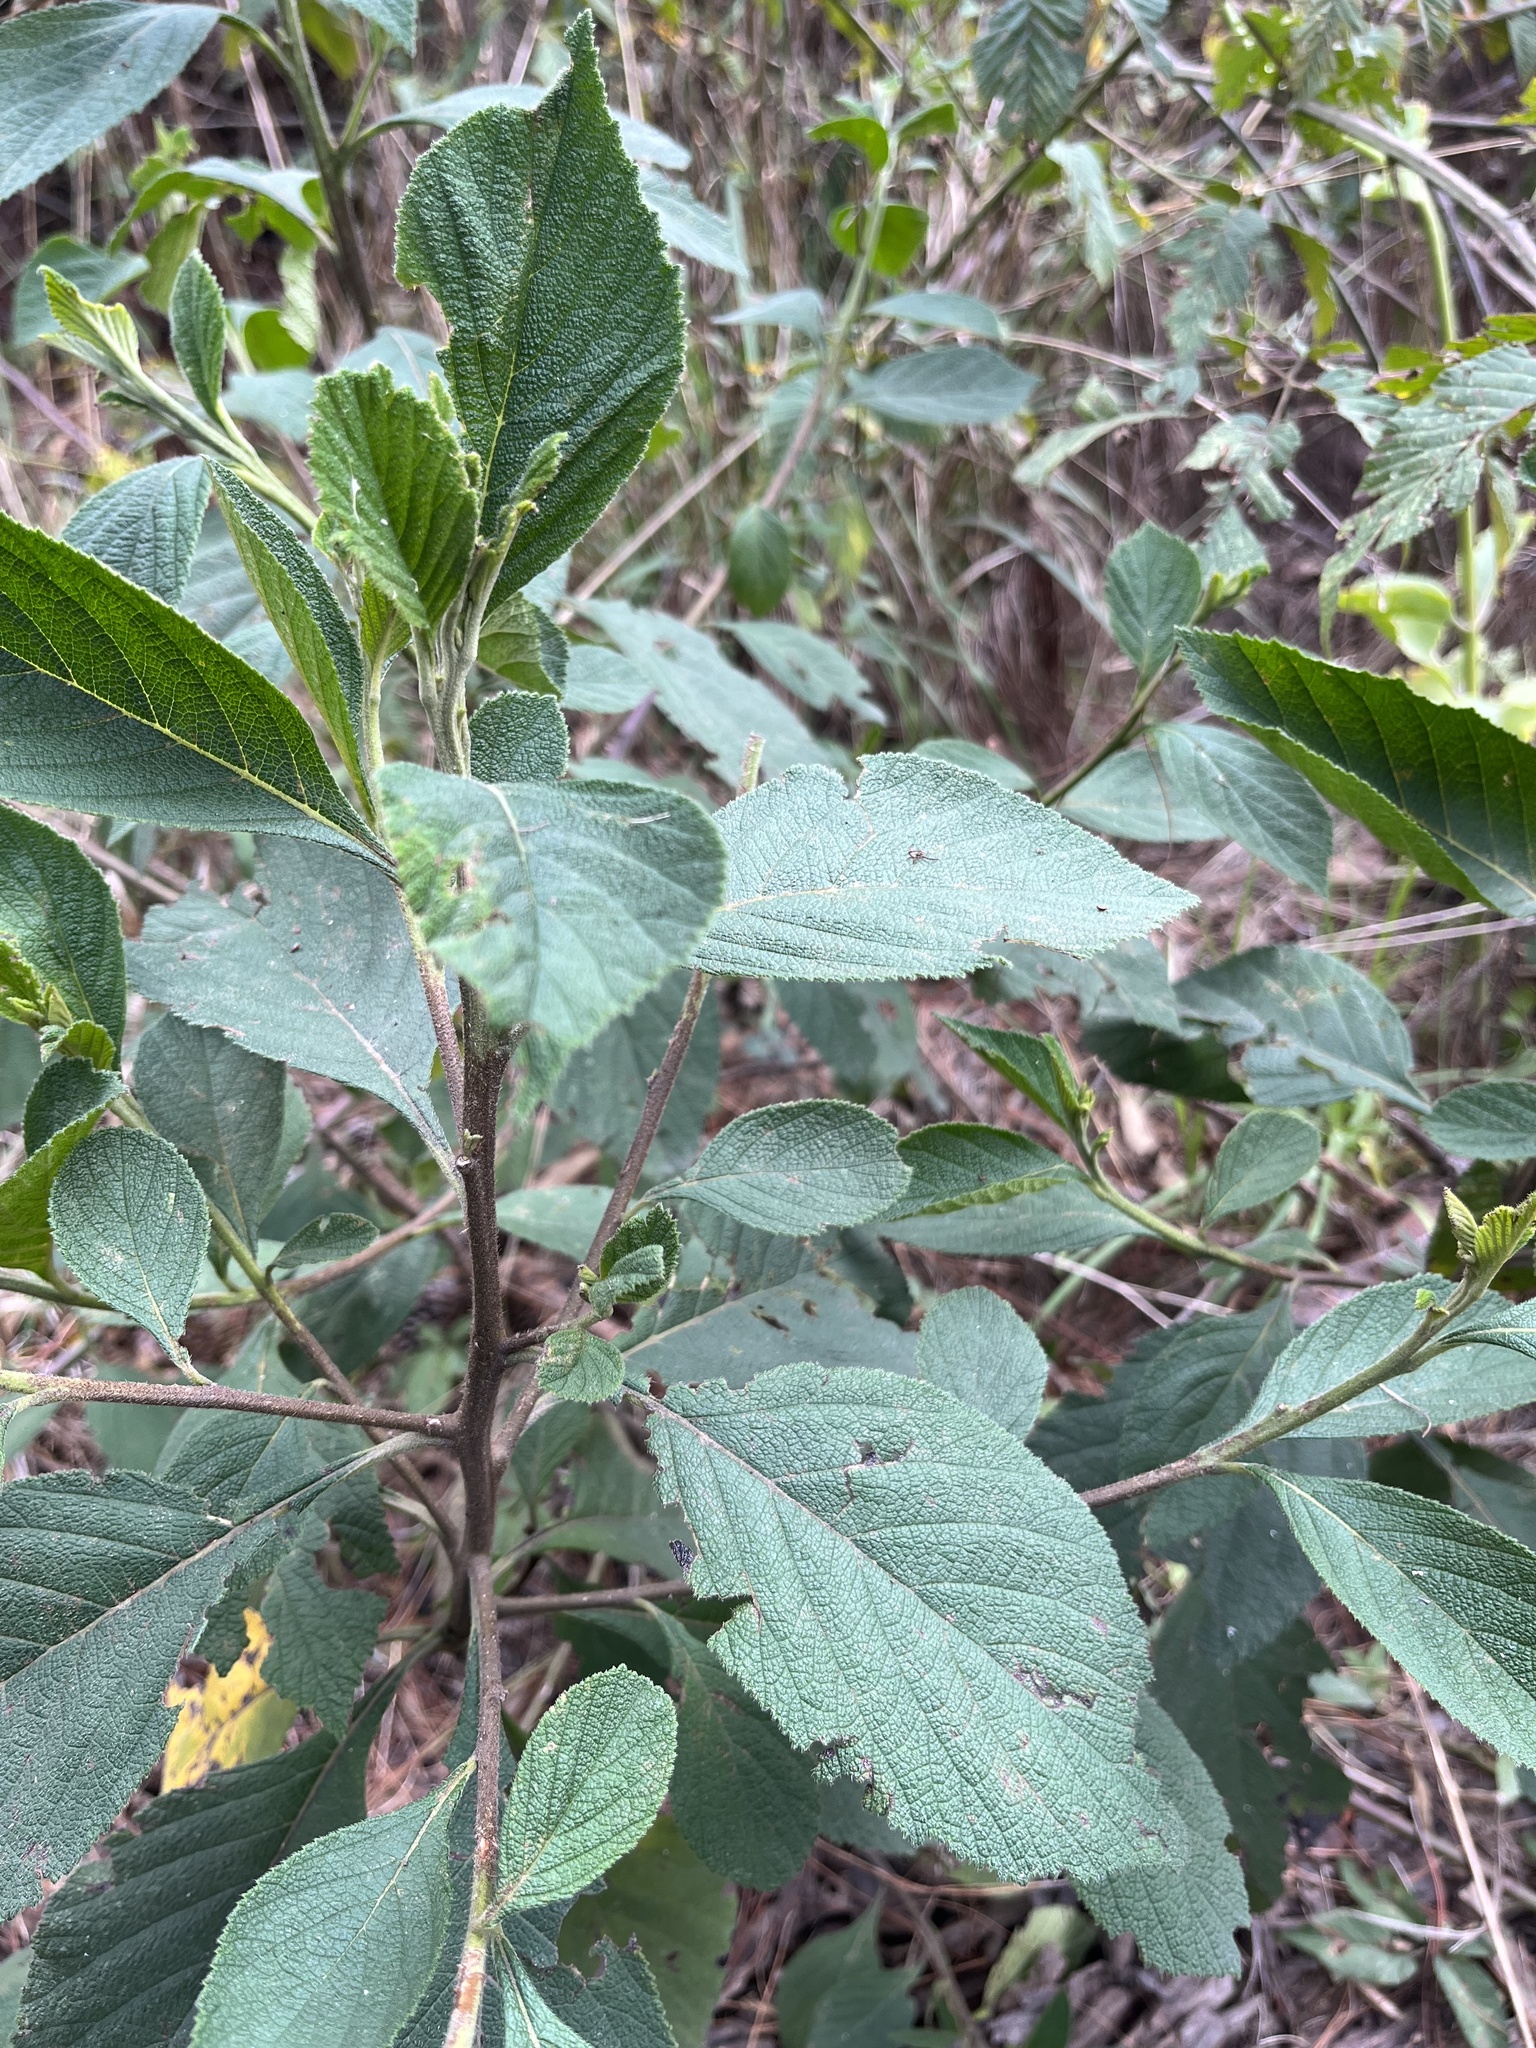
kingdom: Plantae
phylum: Tracheophyta
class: Magnoliopsida
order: Boraginales
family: Cordiaceae
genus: Varronia
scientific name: Varronia cylindrostachya
